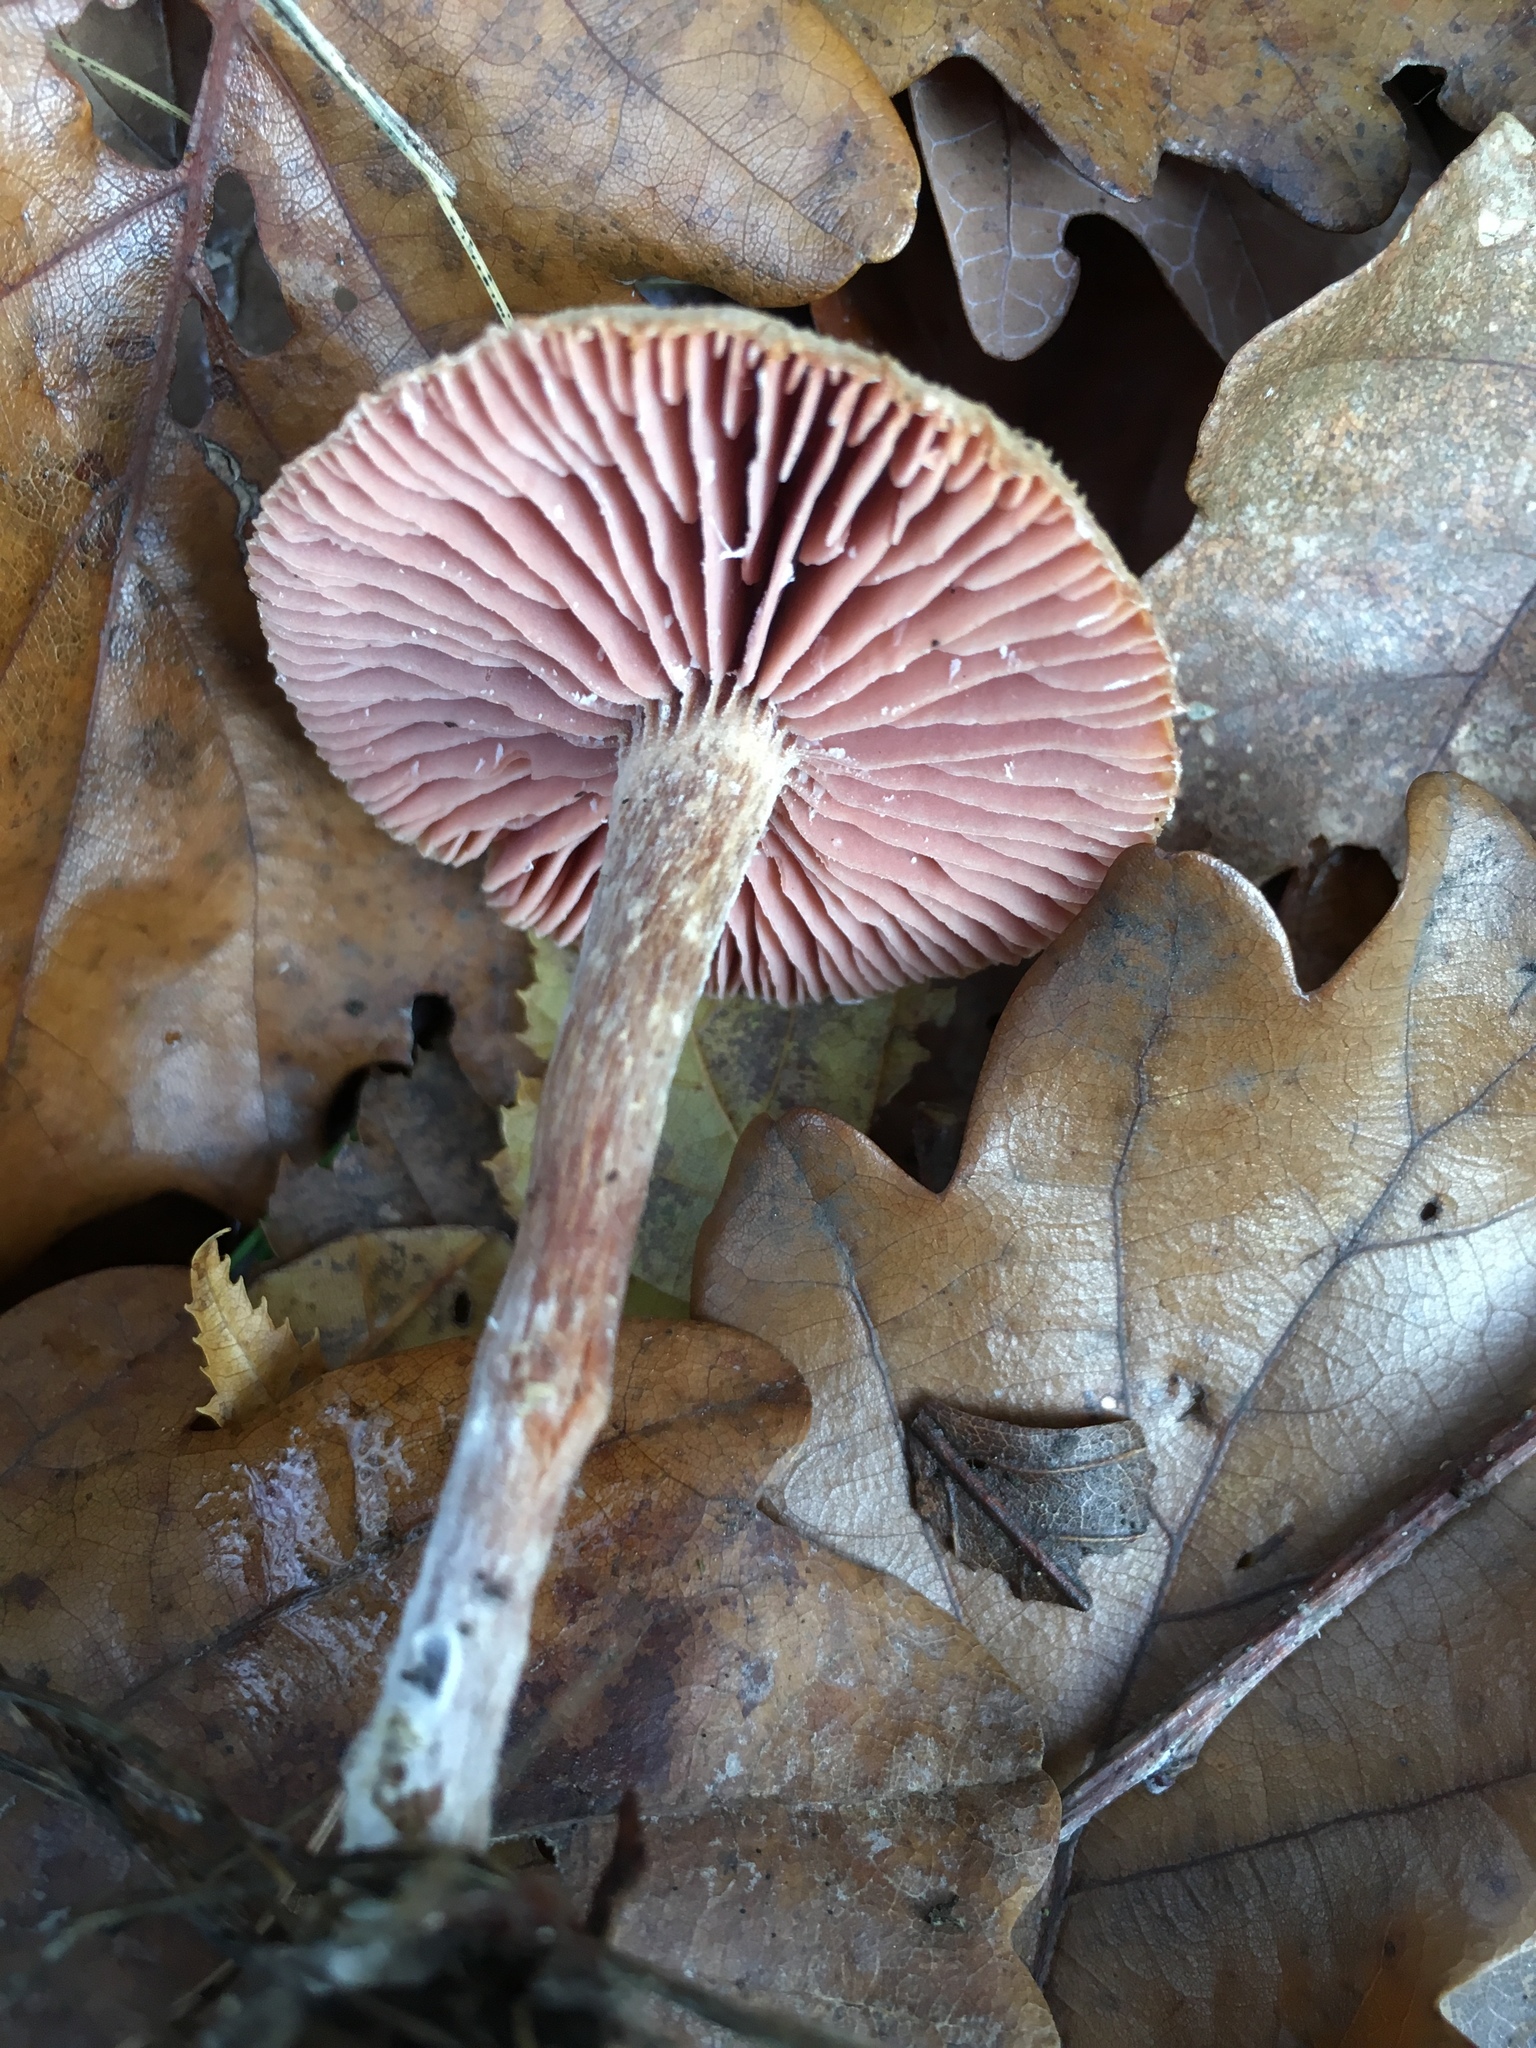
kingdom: Fungi
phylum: Basidiomycota
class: Agaricomycetes
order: Agaricales
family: Hydnangiaceae
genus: Laccaria
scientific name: Laccaria laccata
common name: Deceiver
